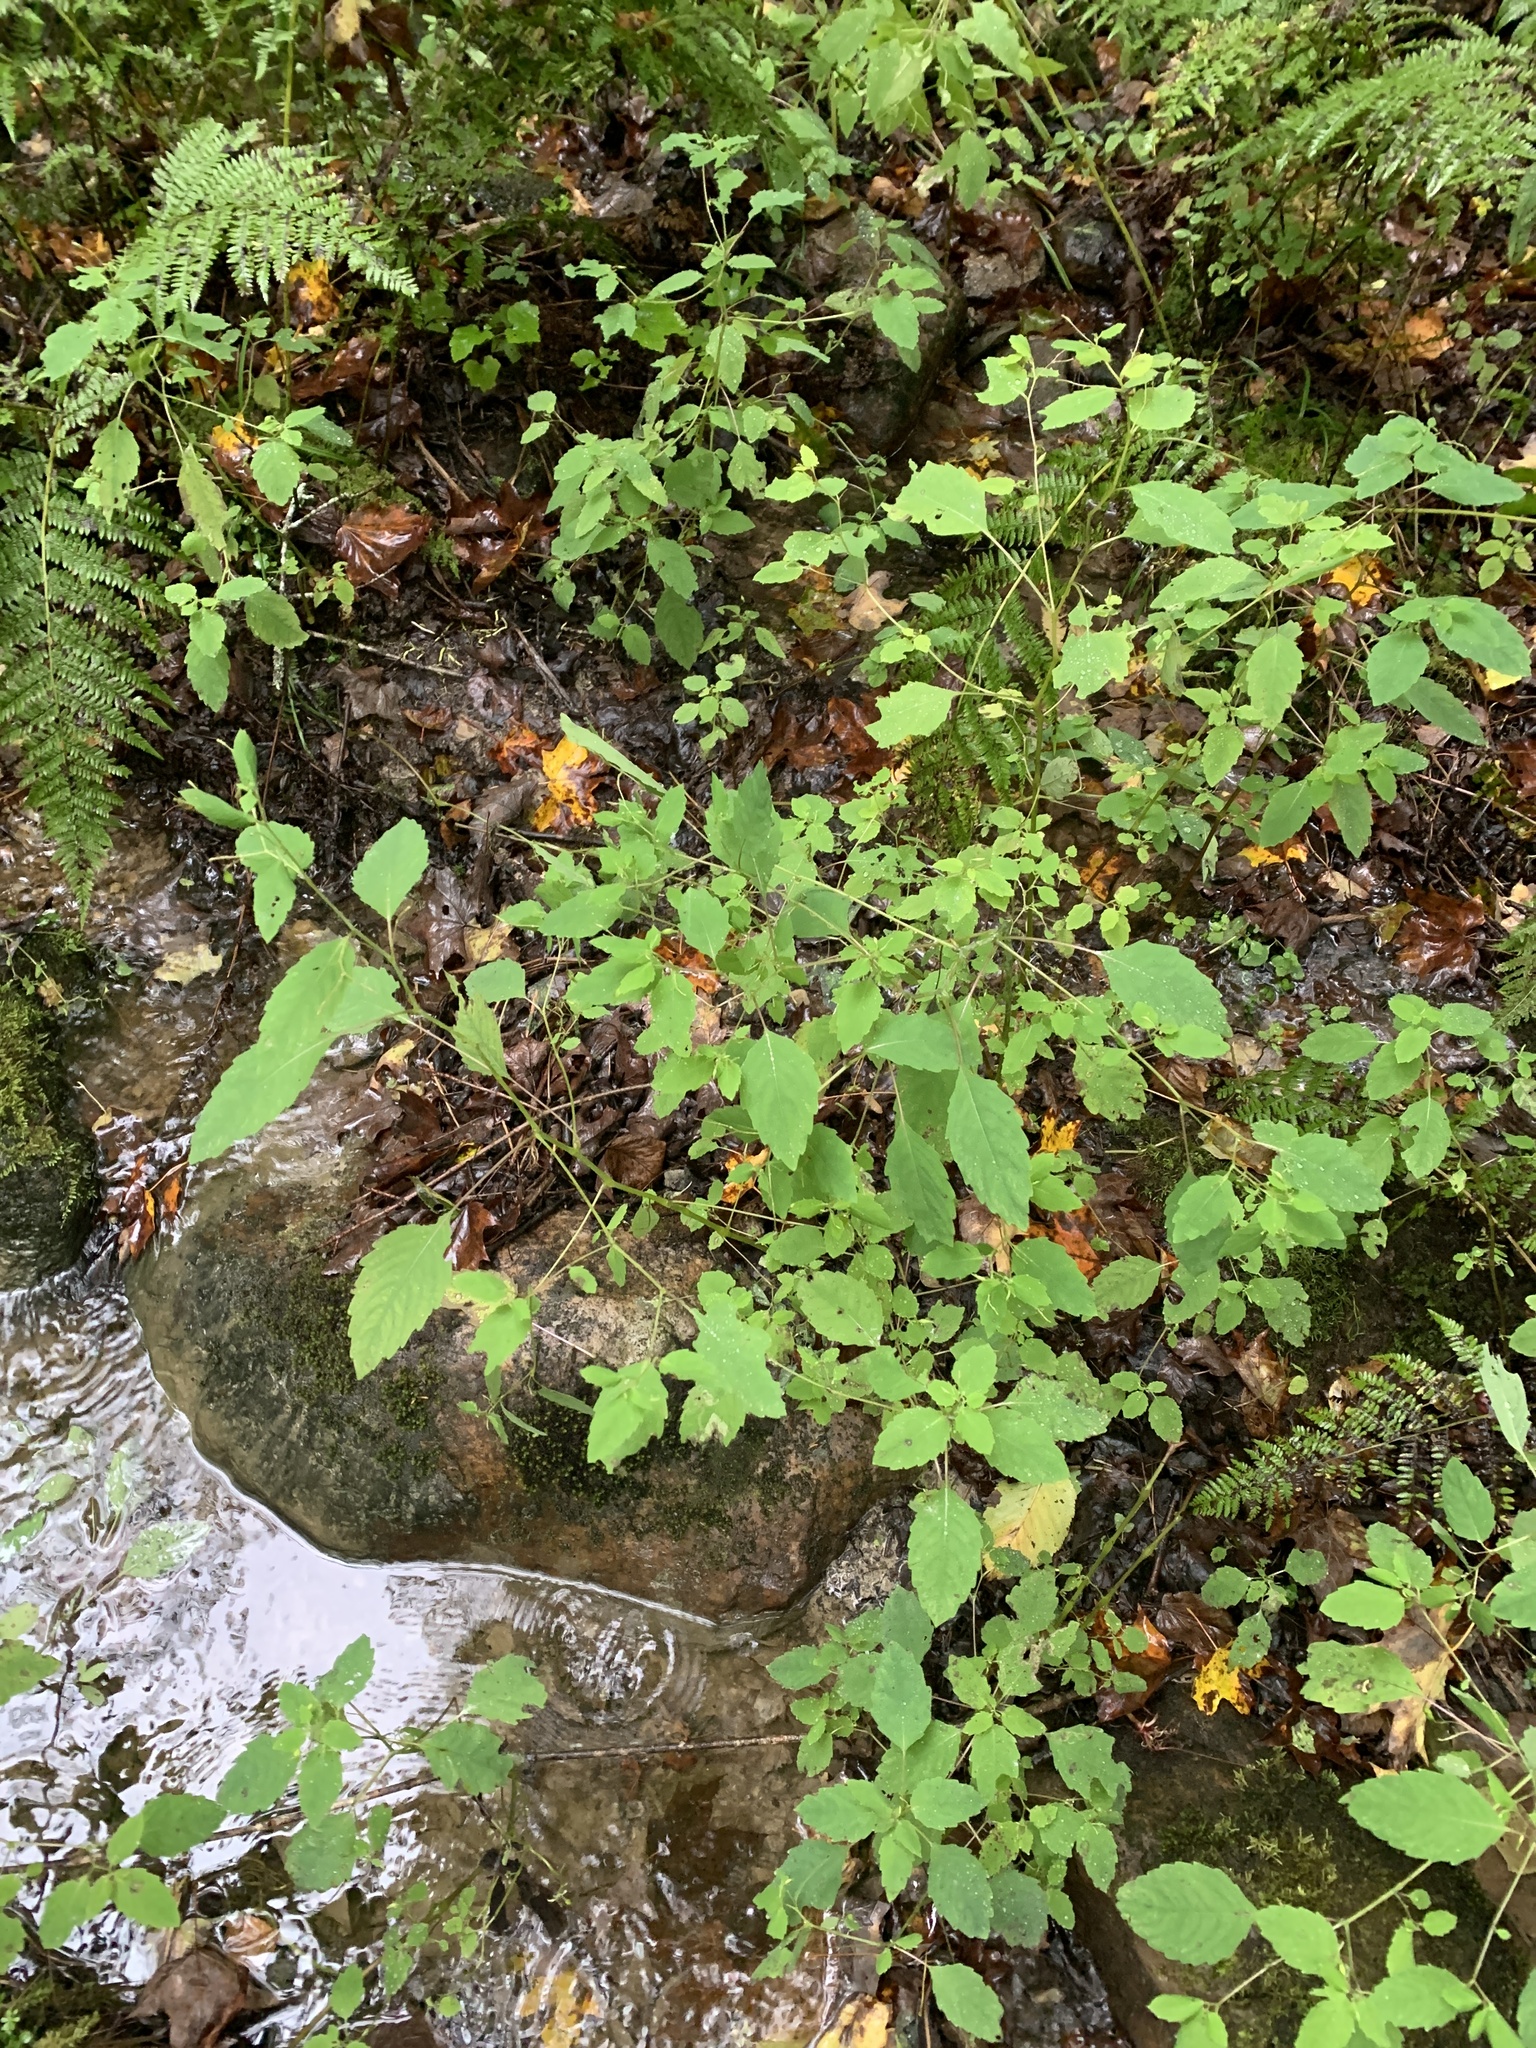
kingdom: Plantae
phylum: Tracheophyta
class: Magnoliopsida
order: Ericales
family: Balsaminaceae
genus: Impatiens
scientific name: Impatiens capensis
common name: Orange balsam
